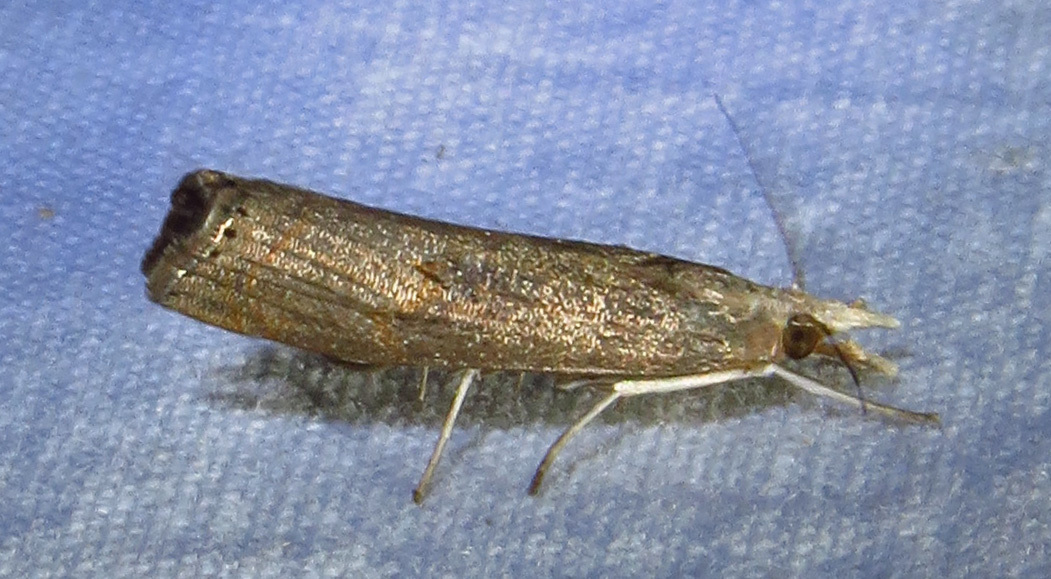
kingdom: Animalia
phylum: Arthropoda
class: Insecta
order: Lepidoptera
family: Crambidae
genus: Parapediasia
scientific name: Parapediasia teterellus
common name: Bluegrass webworm moth
